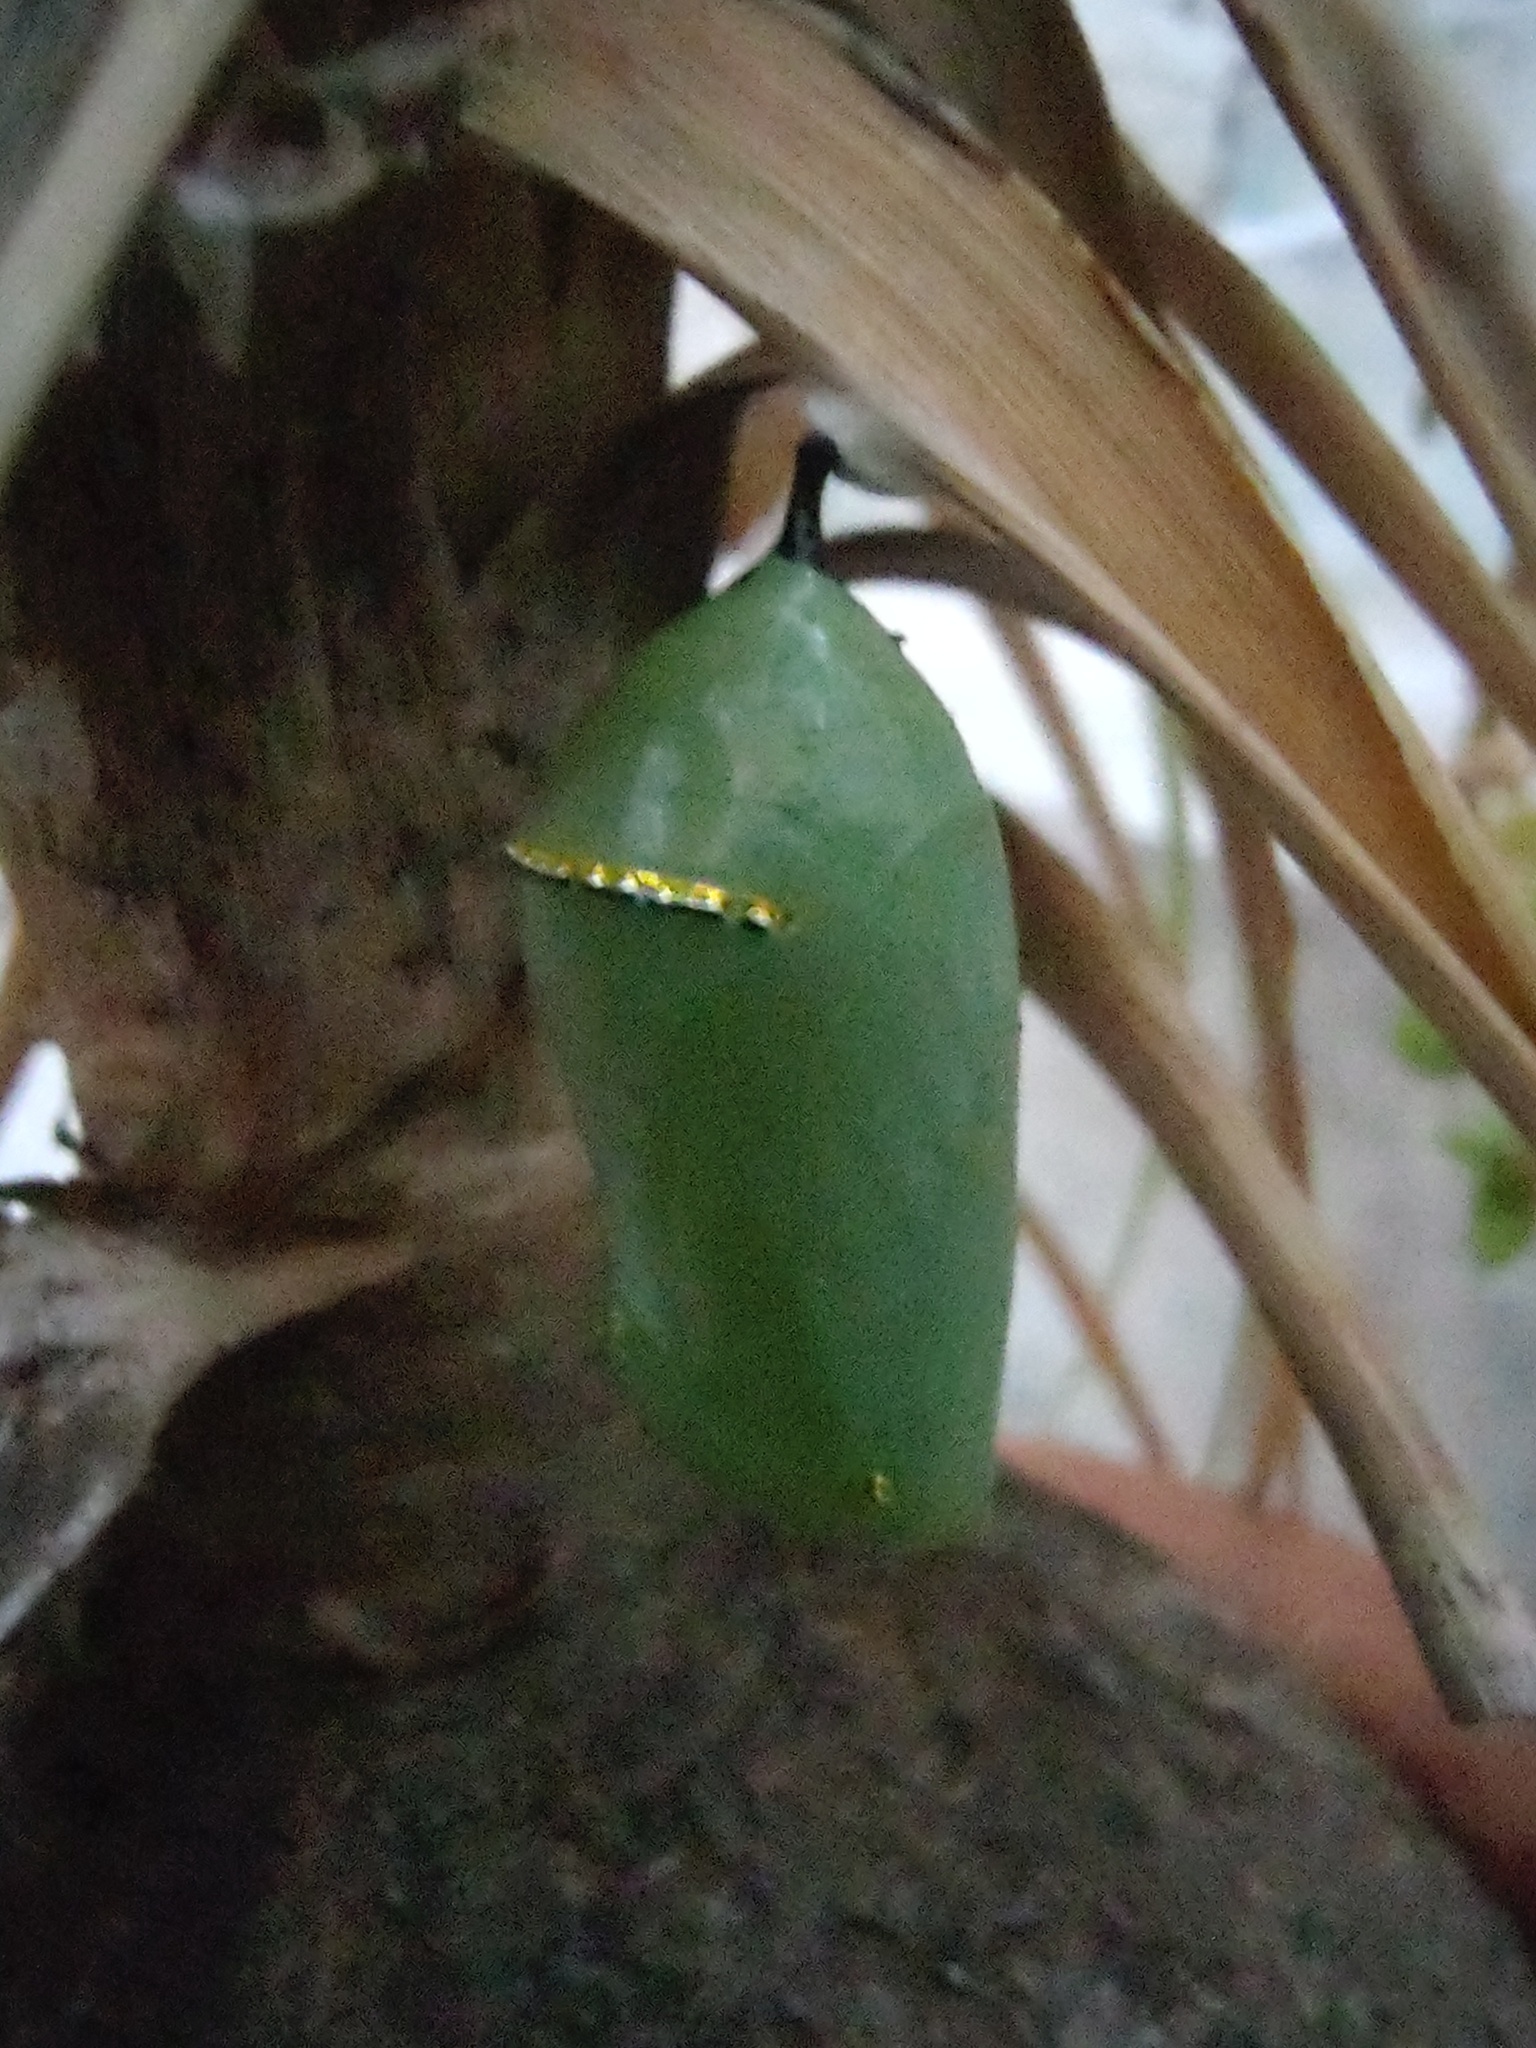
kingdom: Animalia
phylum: Arthropoda
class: Insecta
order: Lepidoptera
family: Nymphalidae
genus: Danaus
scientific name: Danaus plexippus
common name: Monarch
